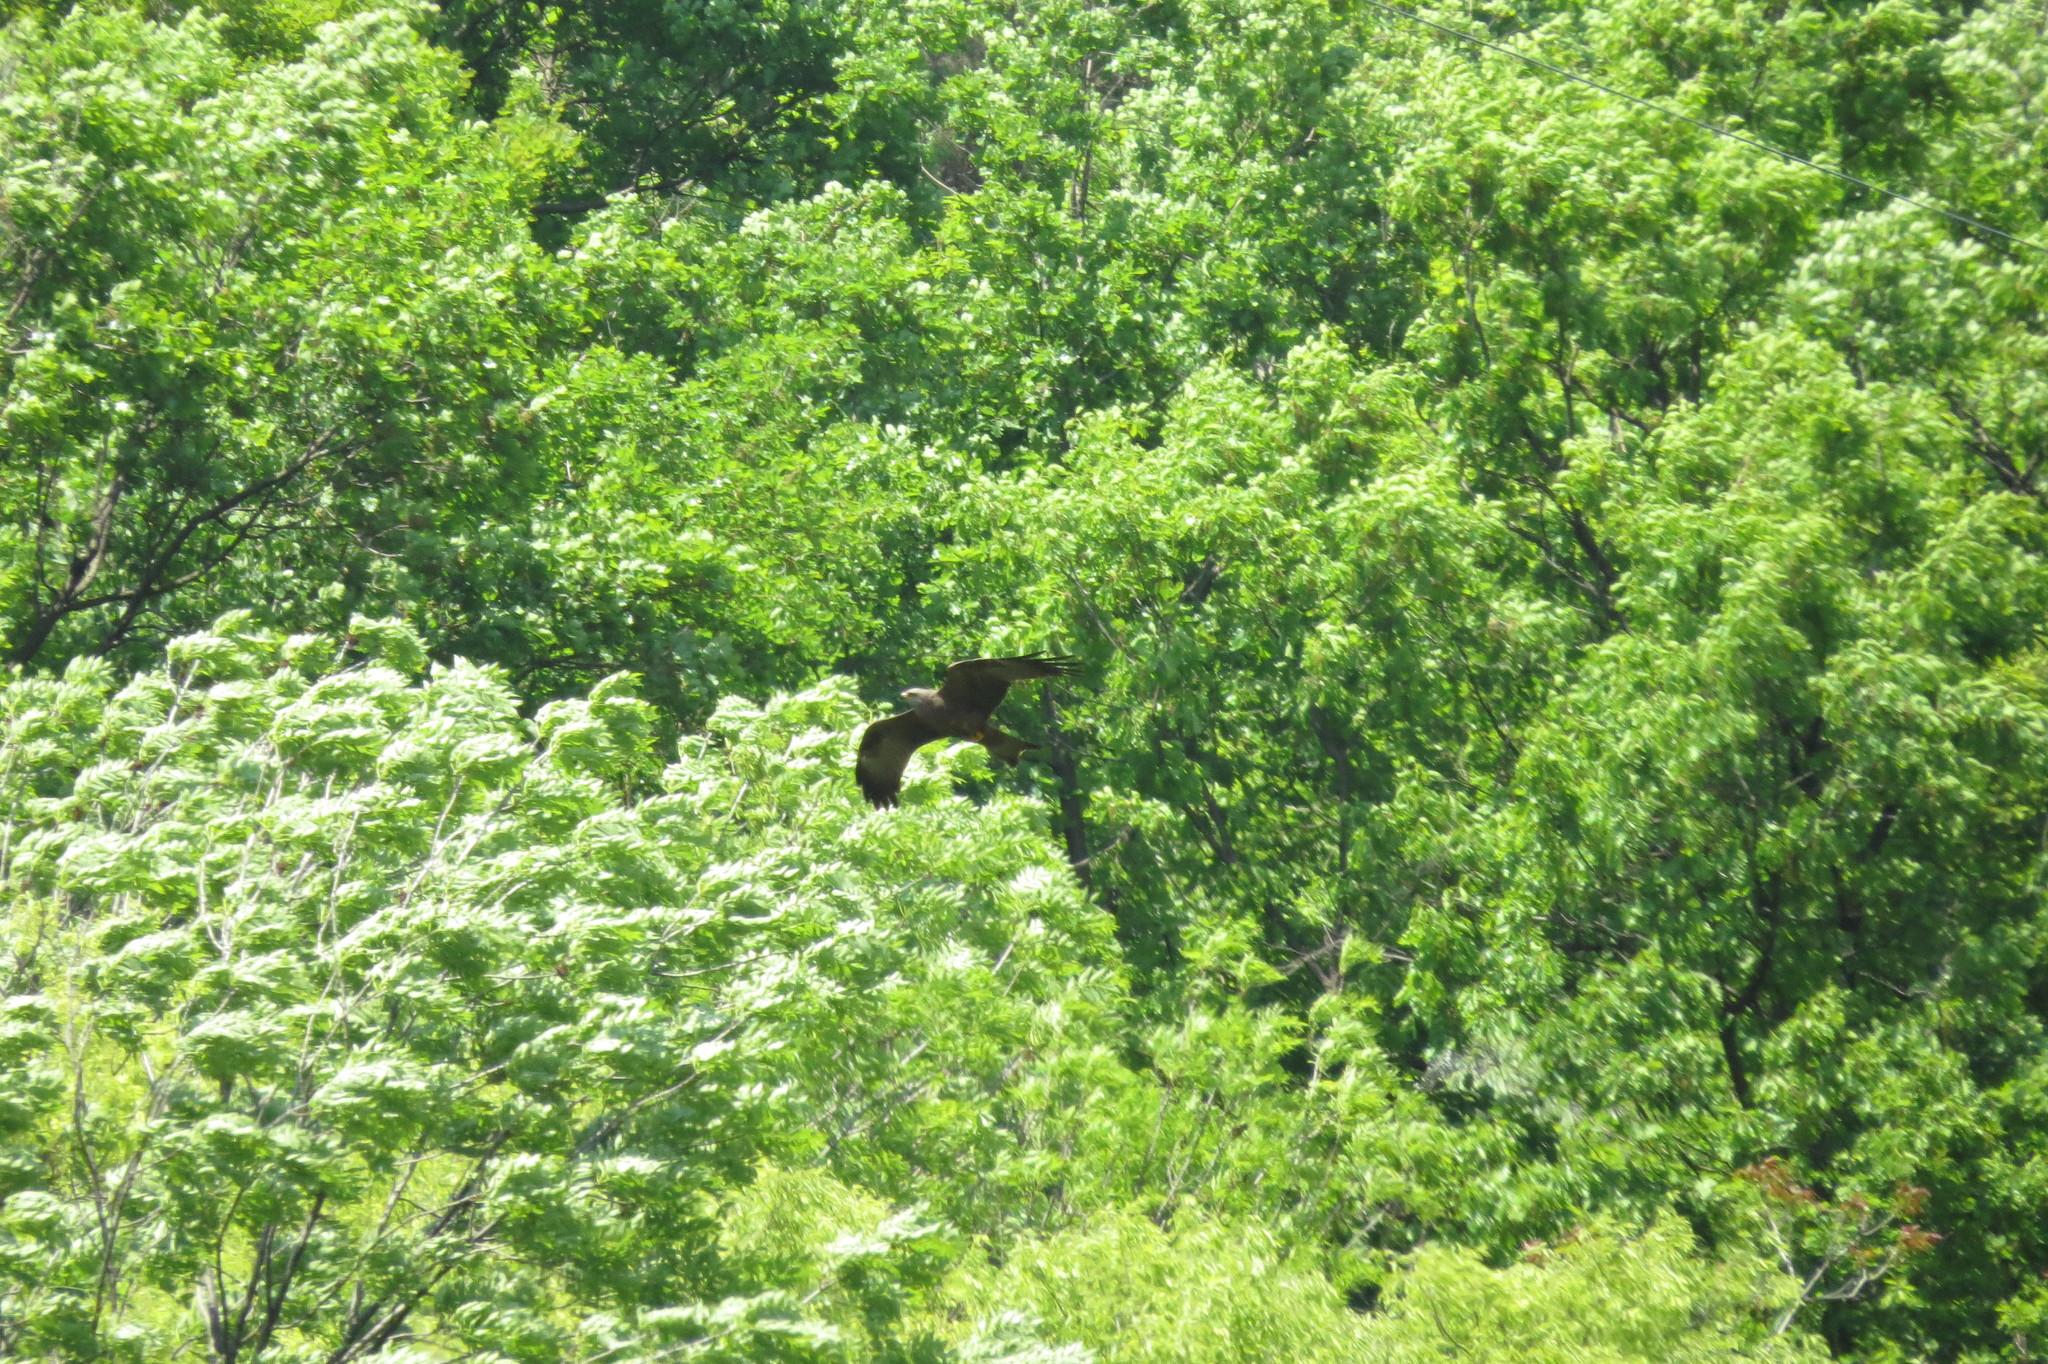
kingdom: Animalia
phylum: Chordata
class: Aves
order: Accipitriformes
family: Accipitridae
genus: Milvus
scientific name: Milvus migrans
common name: Black kite
